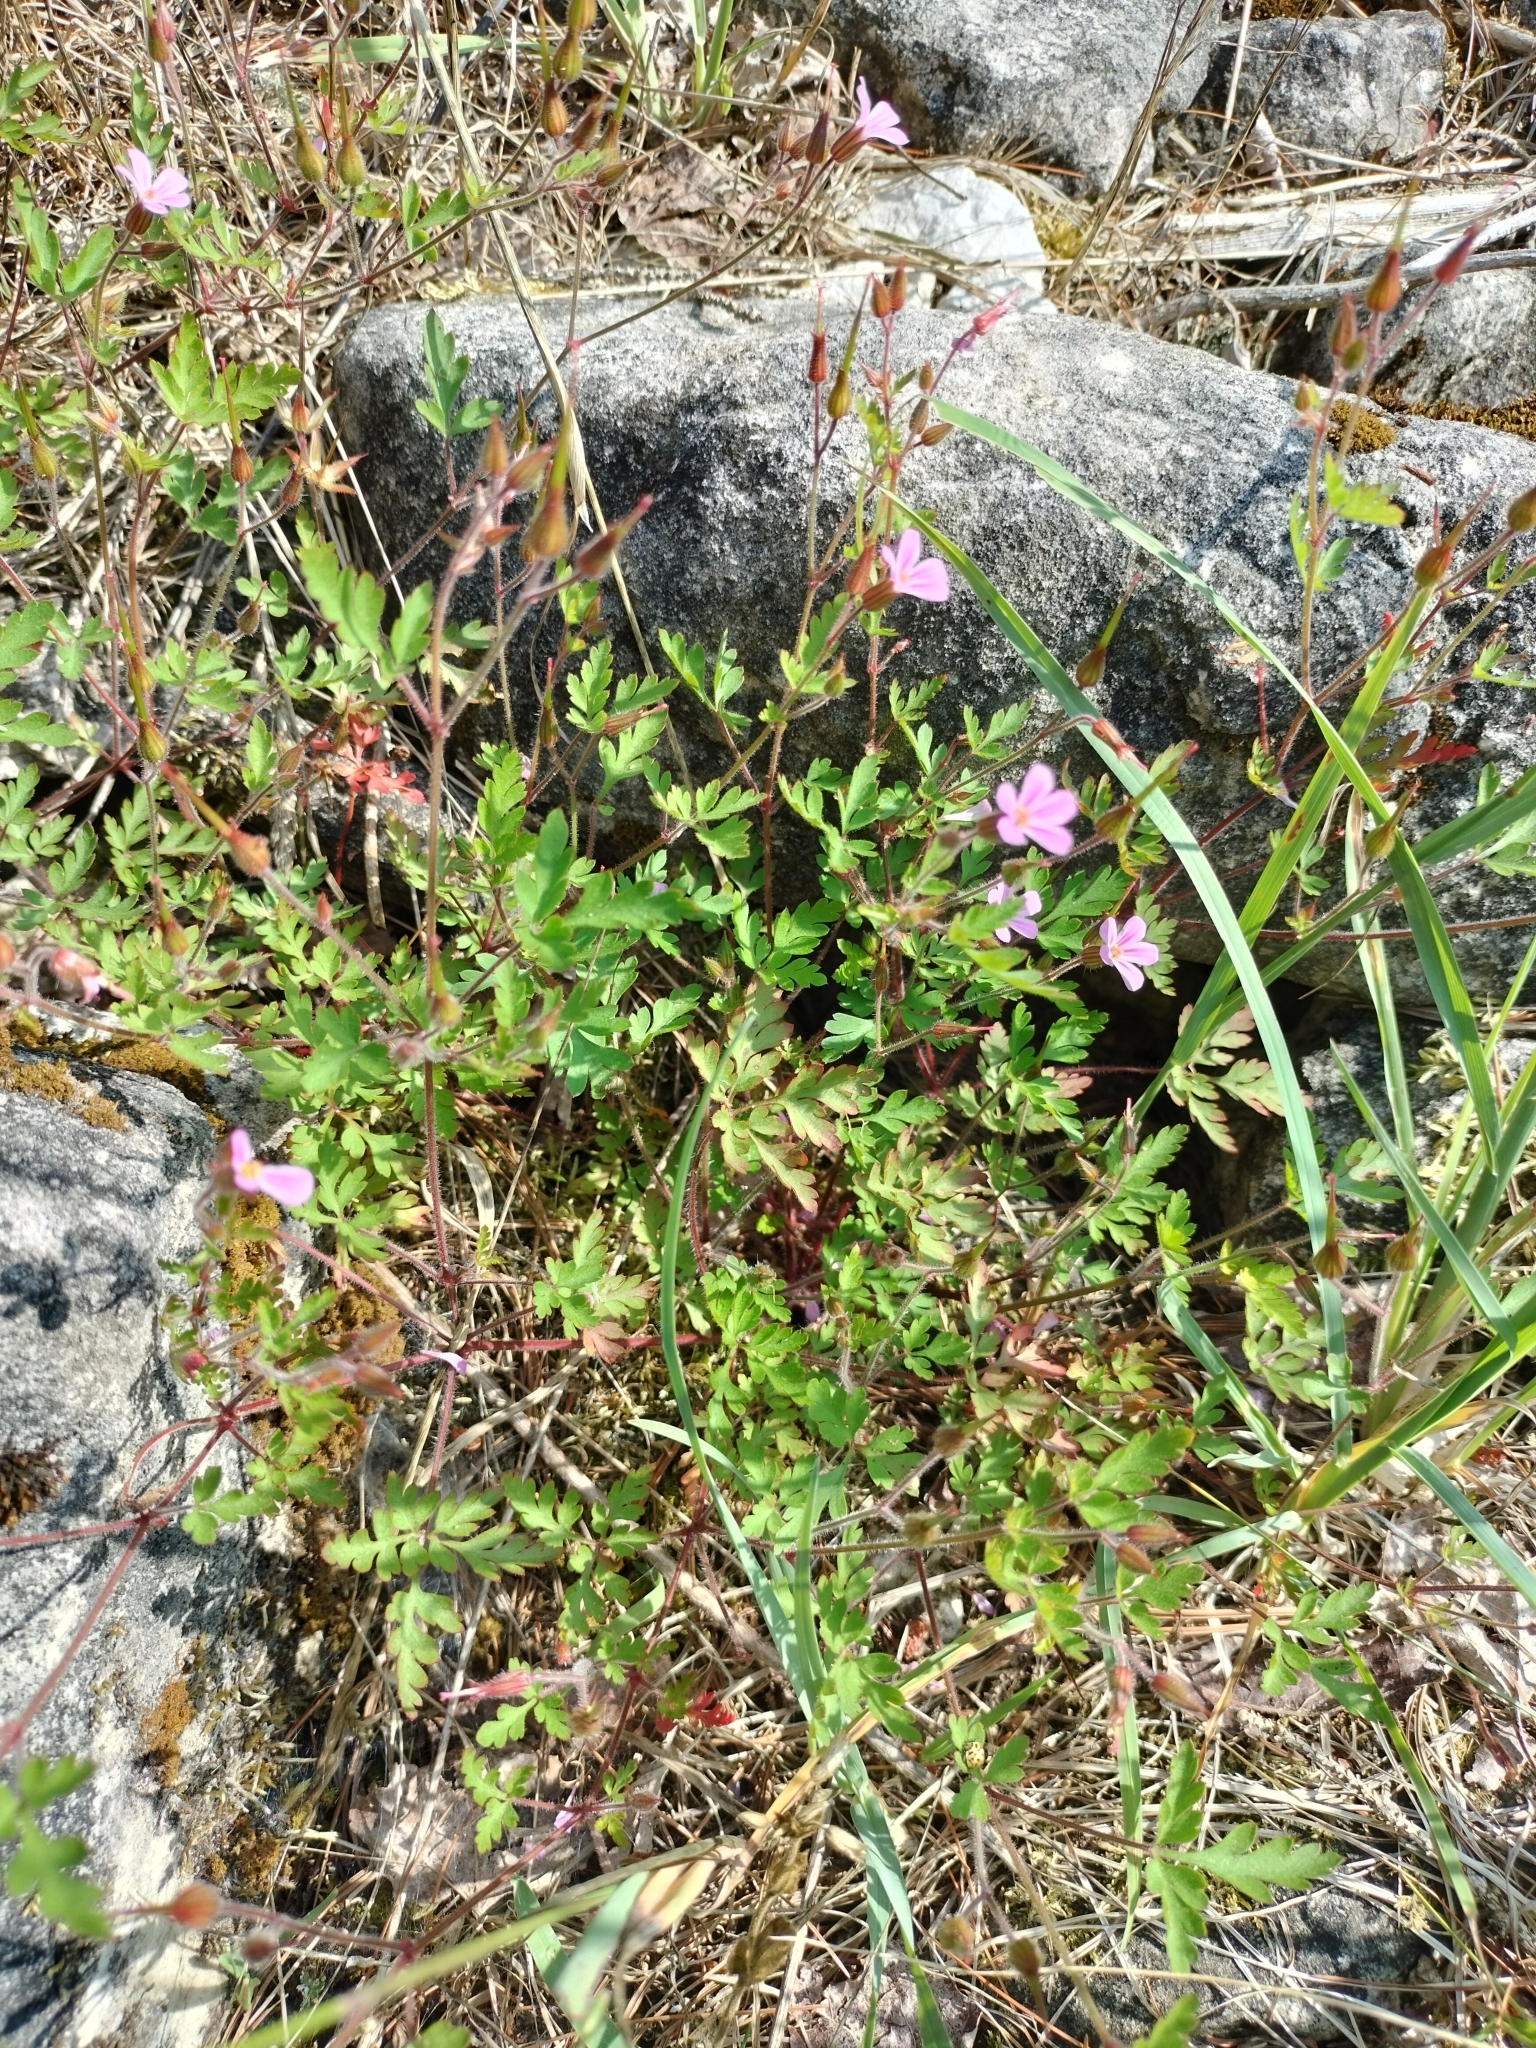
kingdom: Plantae
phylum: Tracheophyta
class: Magnoliopsida
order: Geraniales
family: Geraniaceae
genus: Geranium
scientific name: Geranium robertianum
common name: Herb-robert
